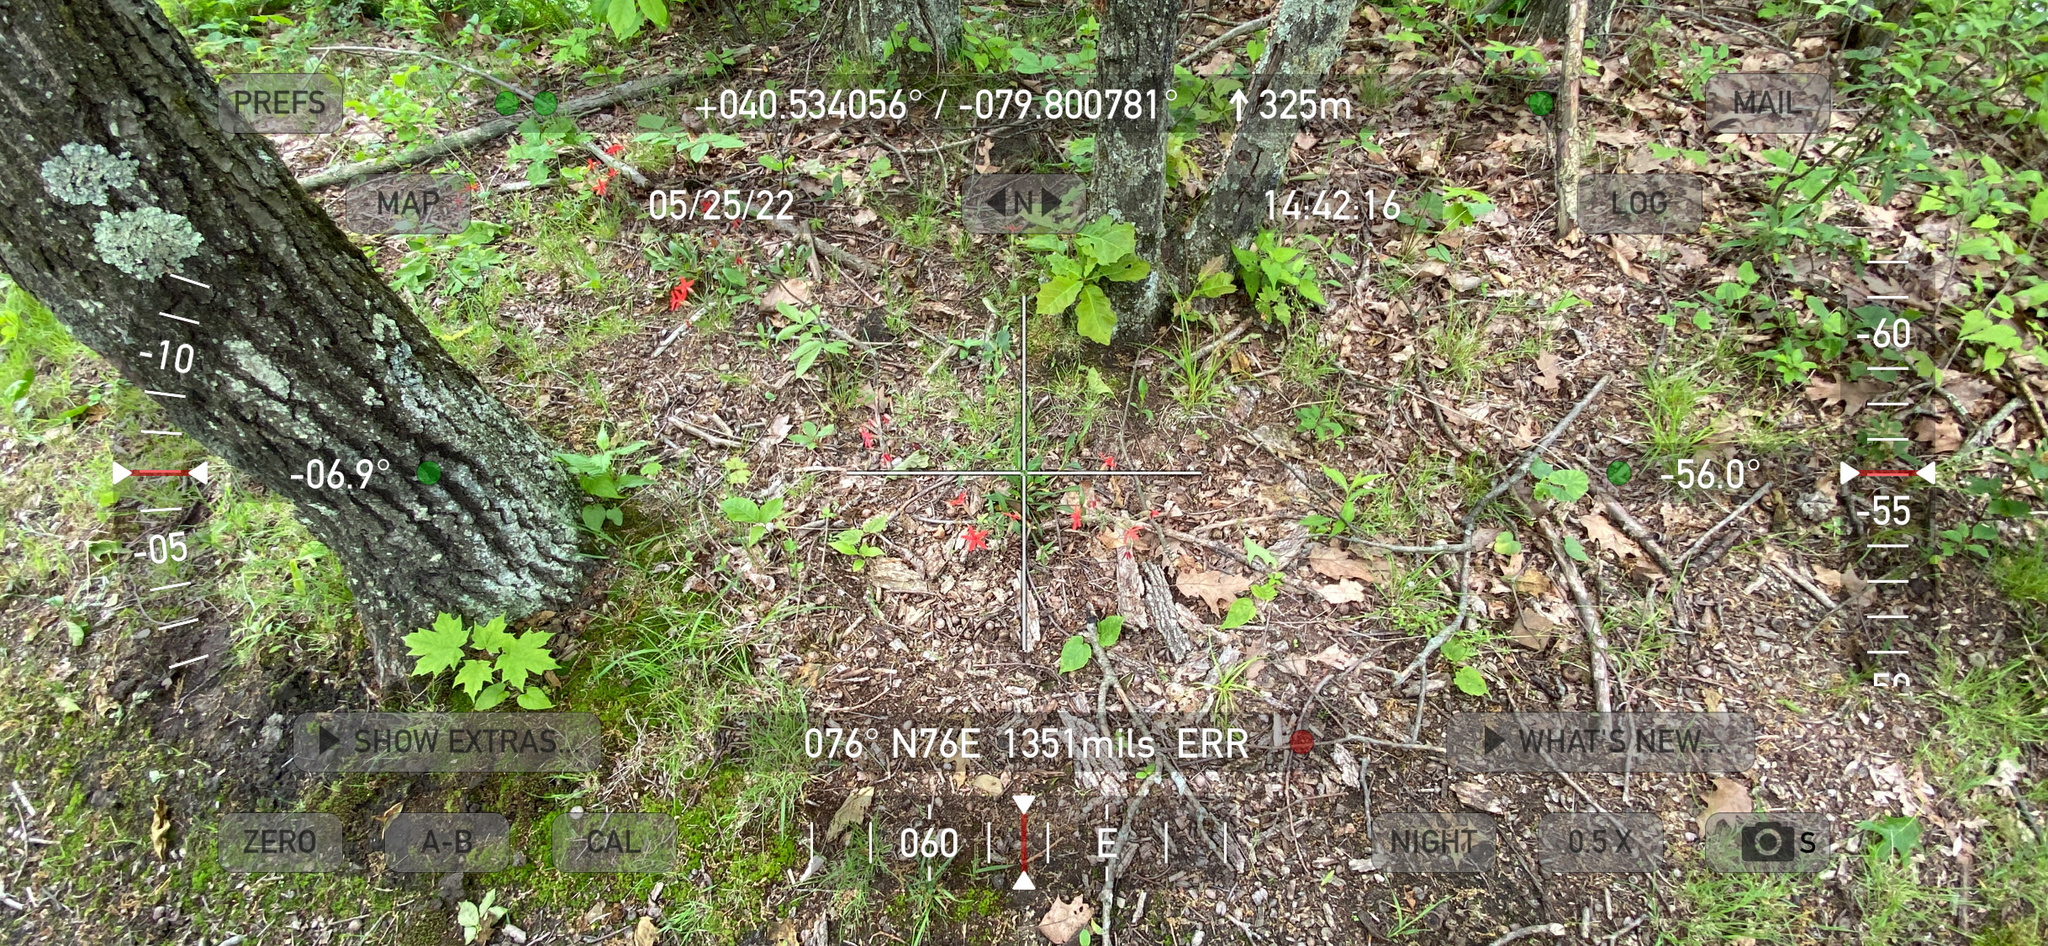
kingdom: Plantae
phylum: Tracheophyta
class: Magnoliopsida
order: Caryophyllales
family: Caryophyllaceae
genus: Silene
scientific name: Silene virginica
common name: Fire-pink
